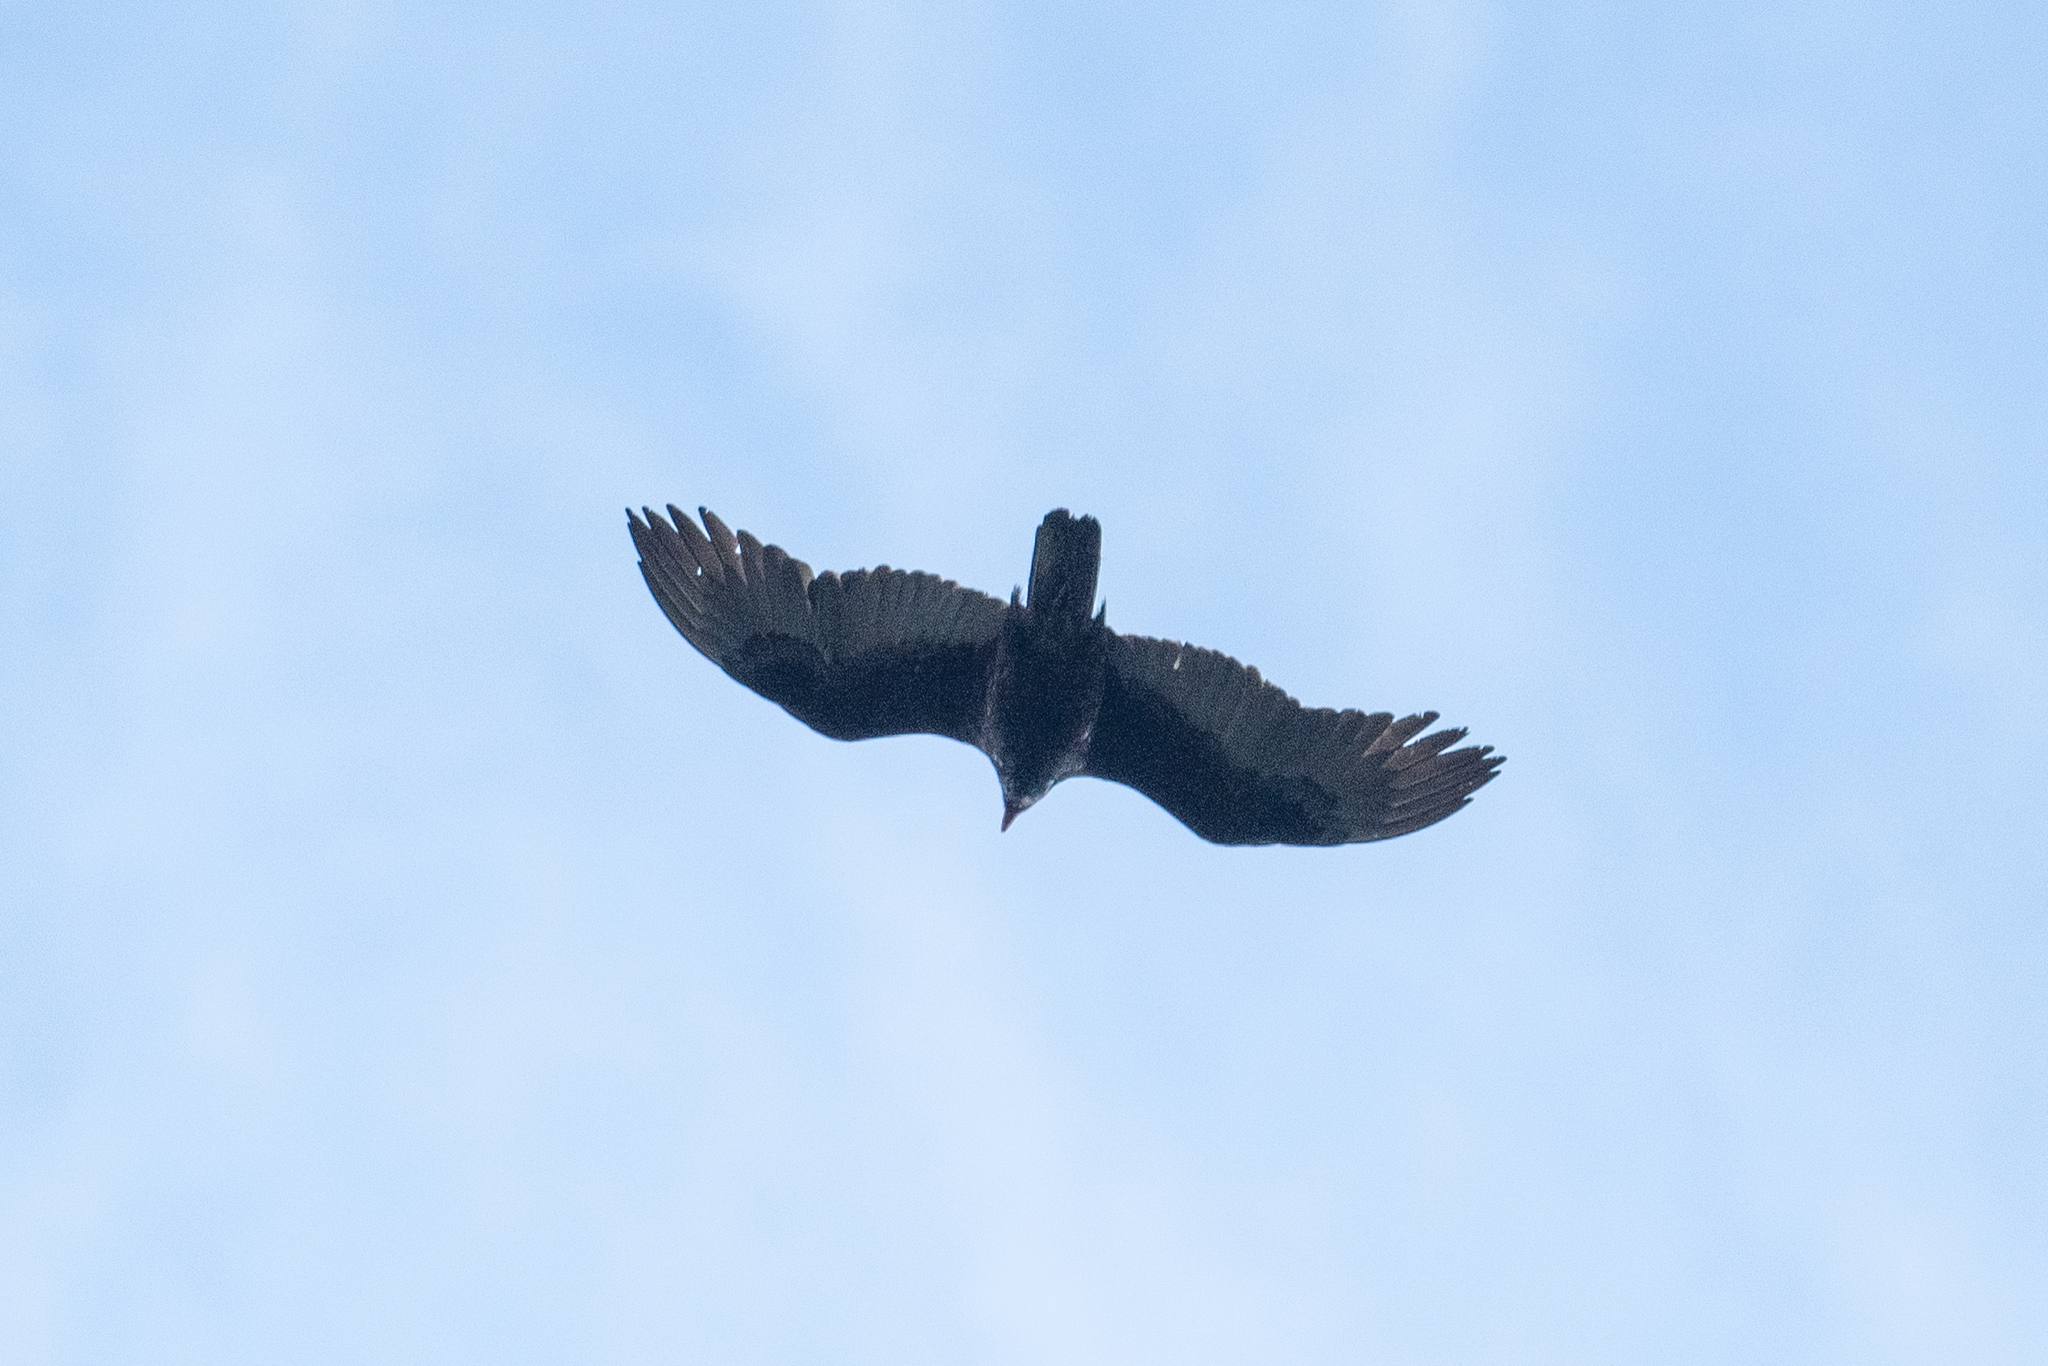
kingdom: Animalia
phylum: Chordata
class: Aves
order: Accipitriformes
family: Cathartidae
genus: Cathartes
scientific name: Cathartes aura
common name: Turkey vulture
